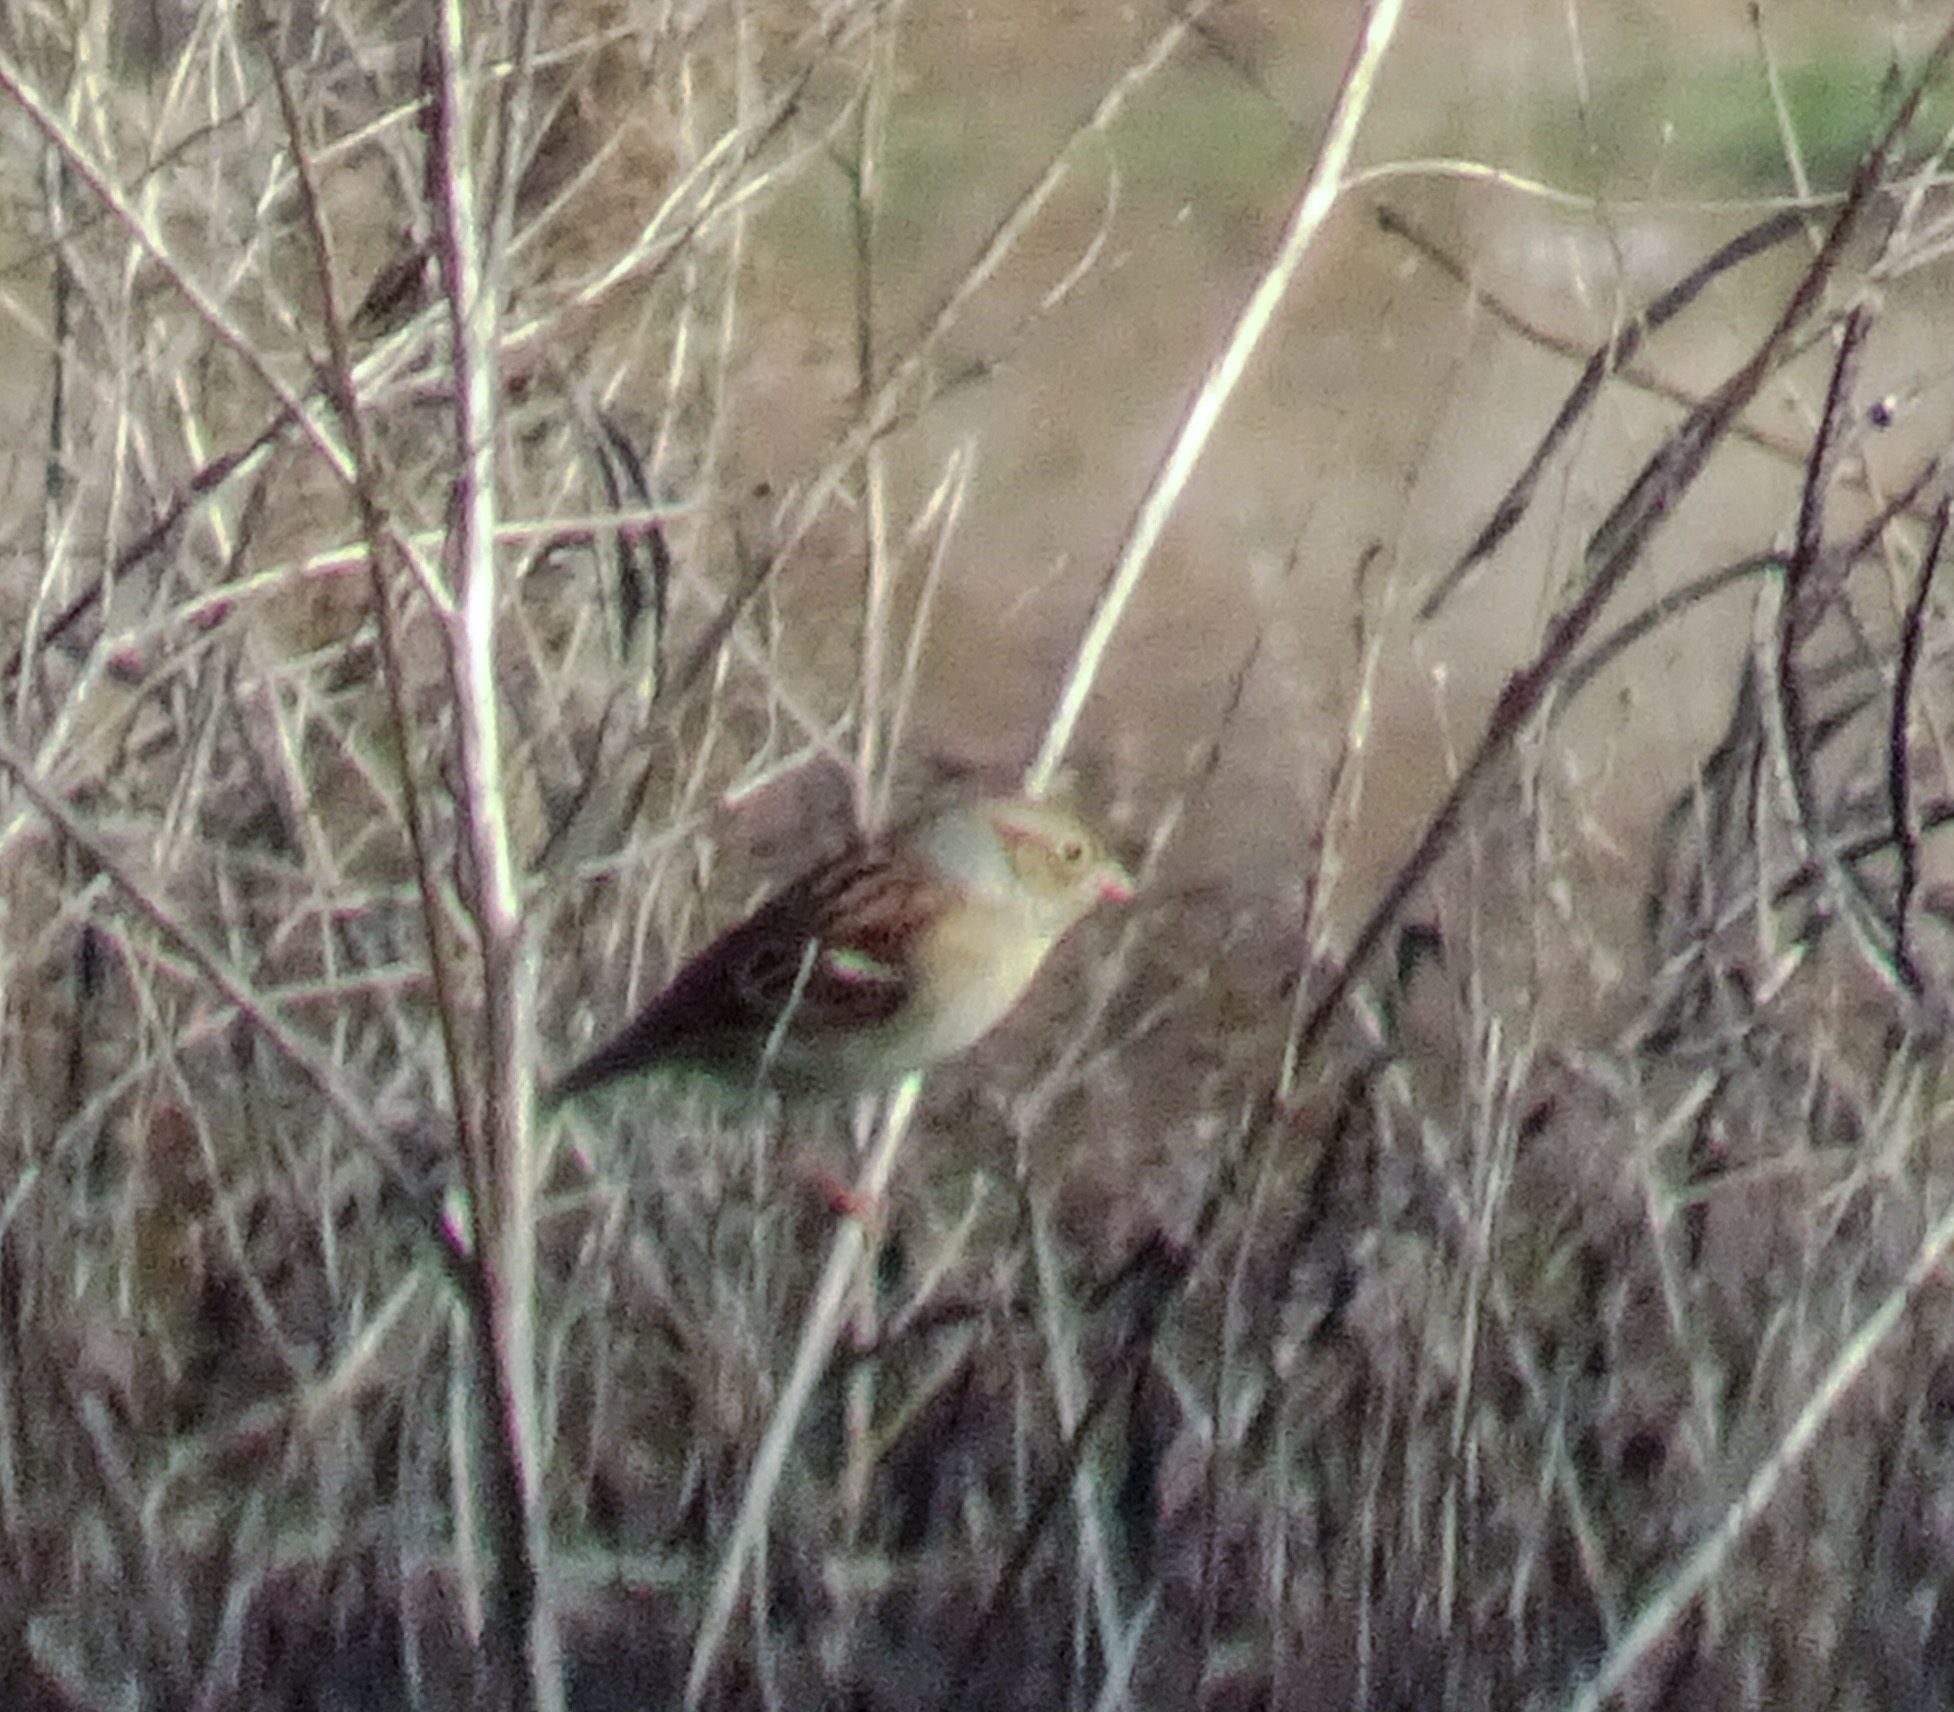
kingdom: Animalia
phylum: Chordata
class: Aves
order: Passeriformes
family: Passerellidae
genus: Spizella
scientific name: Spizella pusilla
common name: Field sparrow
